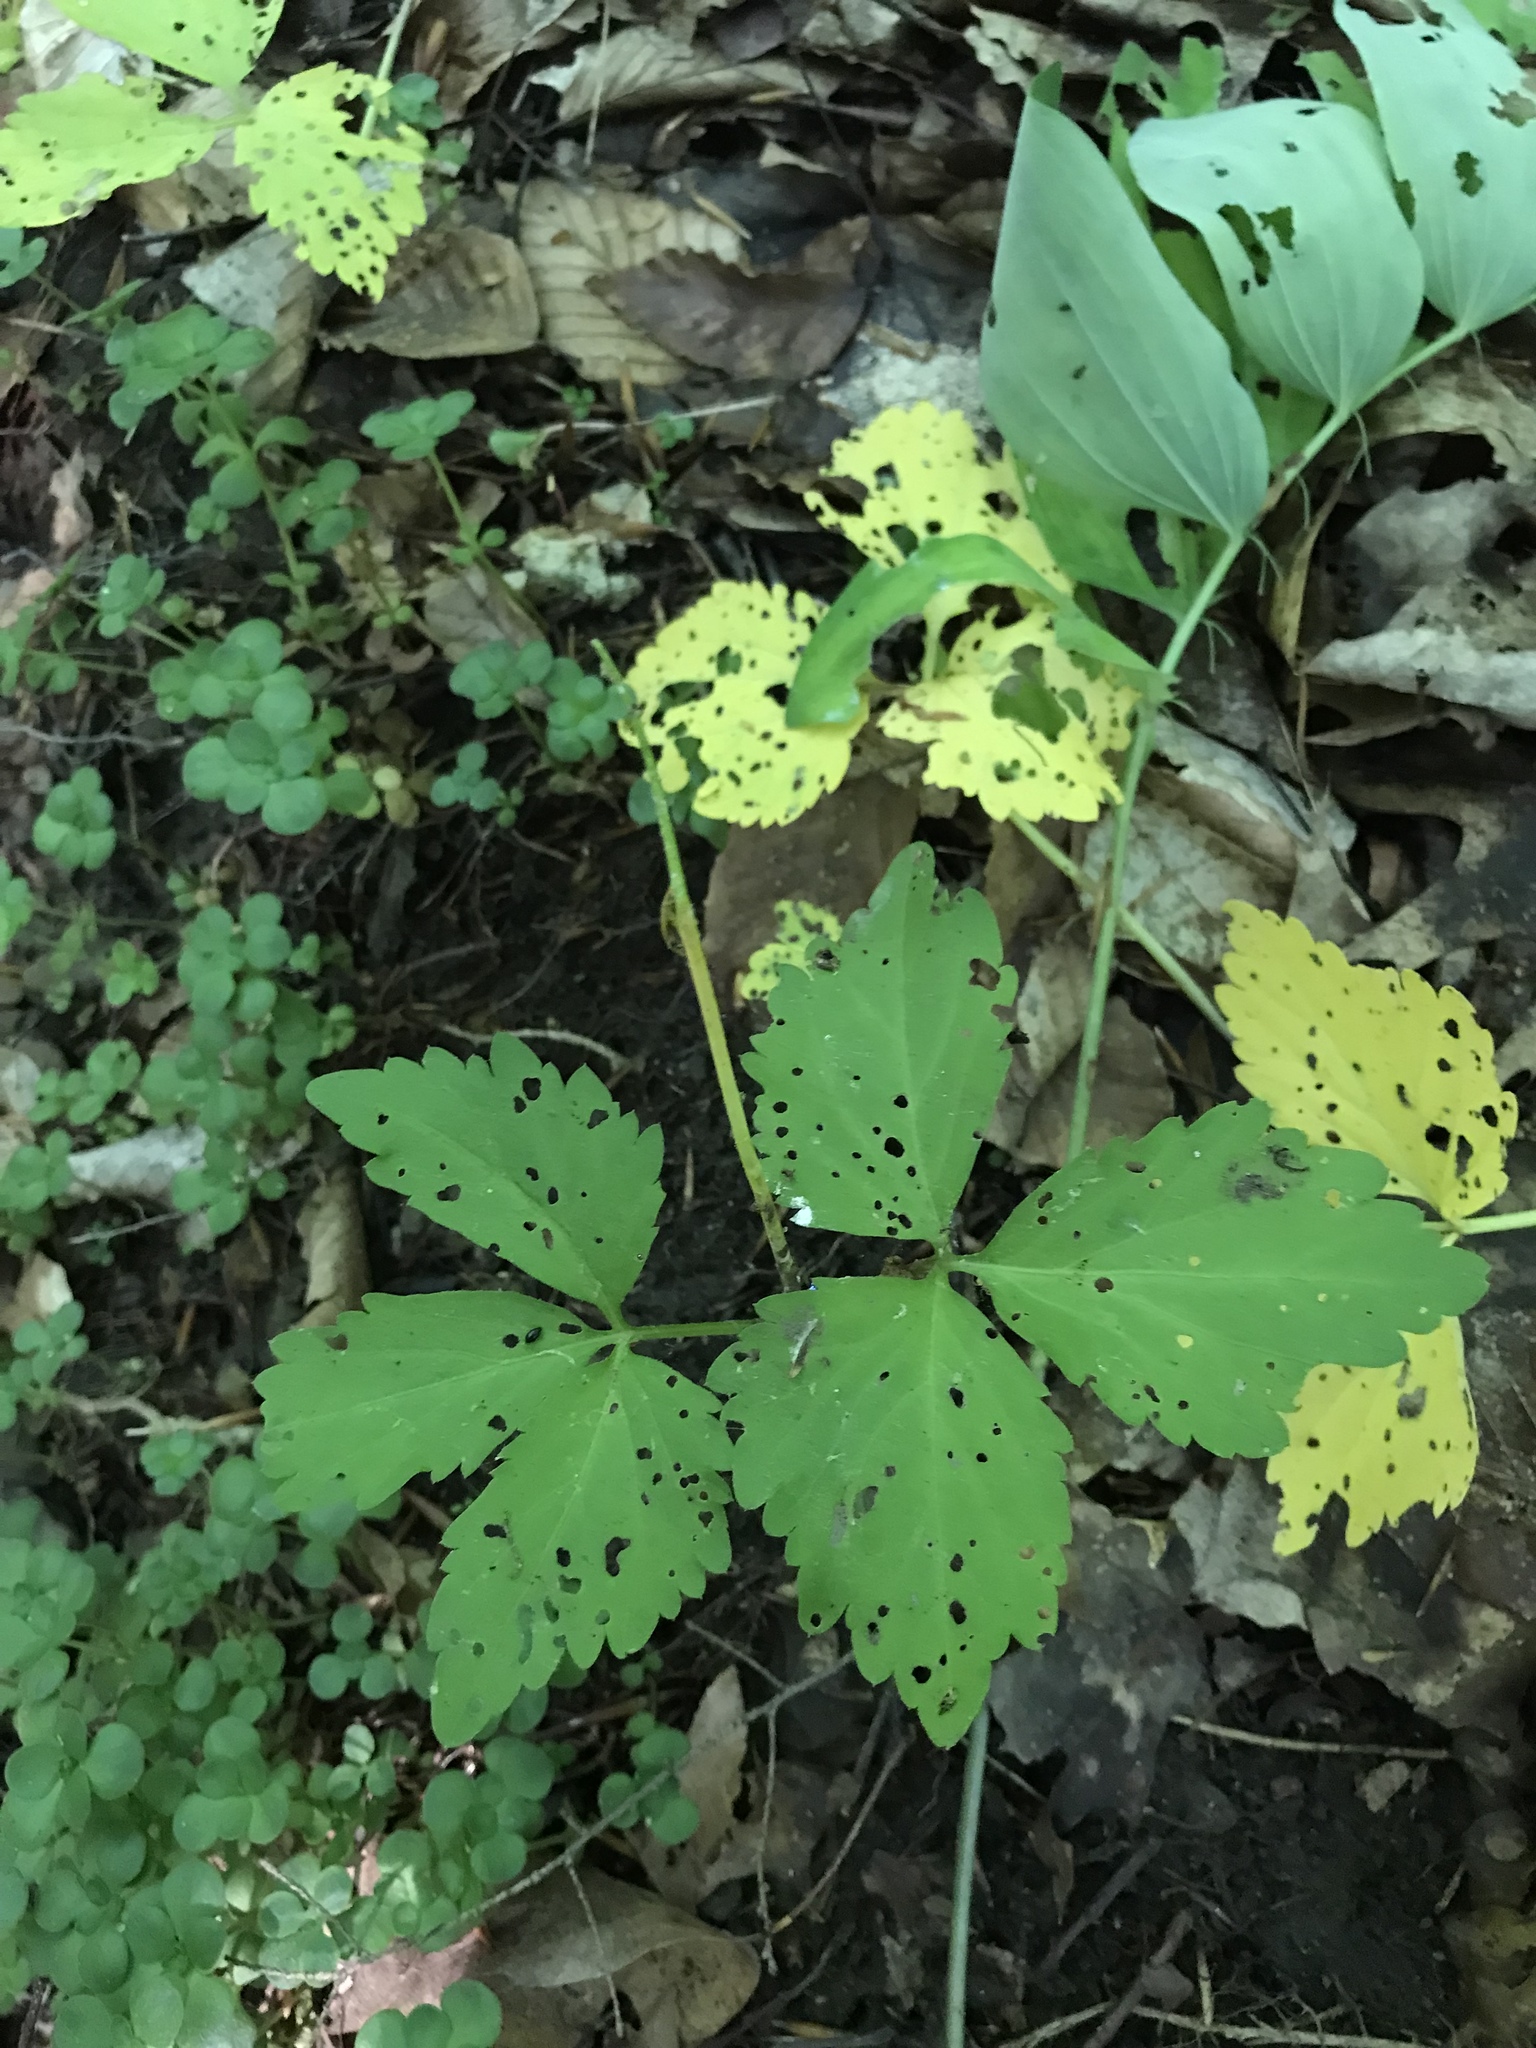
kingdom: Plantae
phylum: Tracheophyta
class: Magnoliopsida
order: Brassicales
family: Brassicaceae
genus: Cardamine
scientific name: Cardamine diphylla
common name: Broad-leaved toothwort
